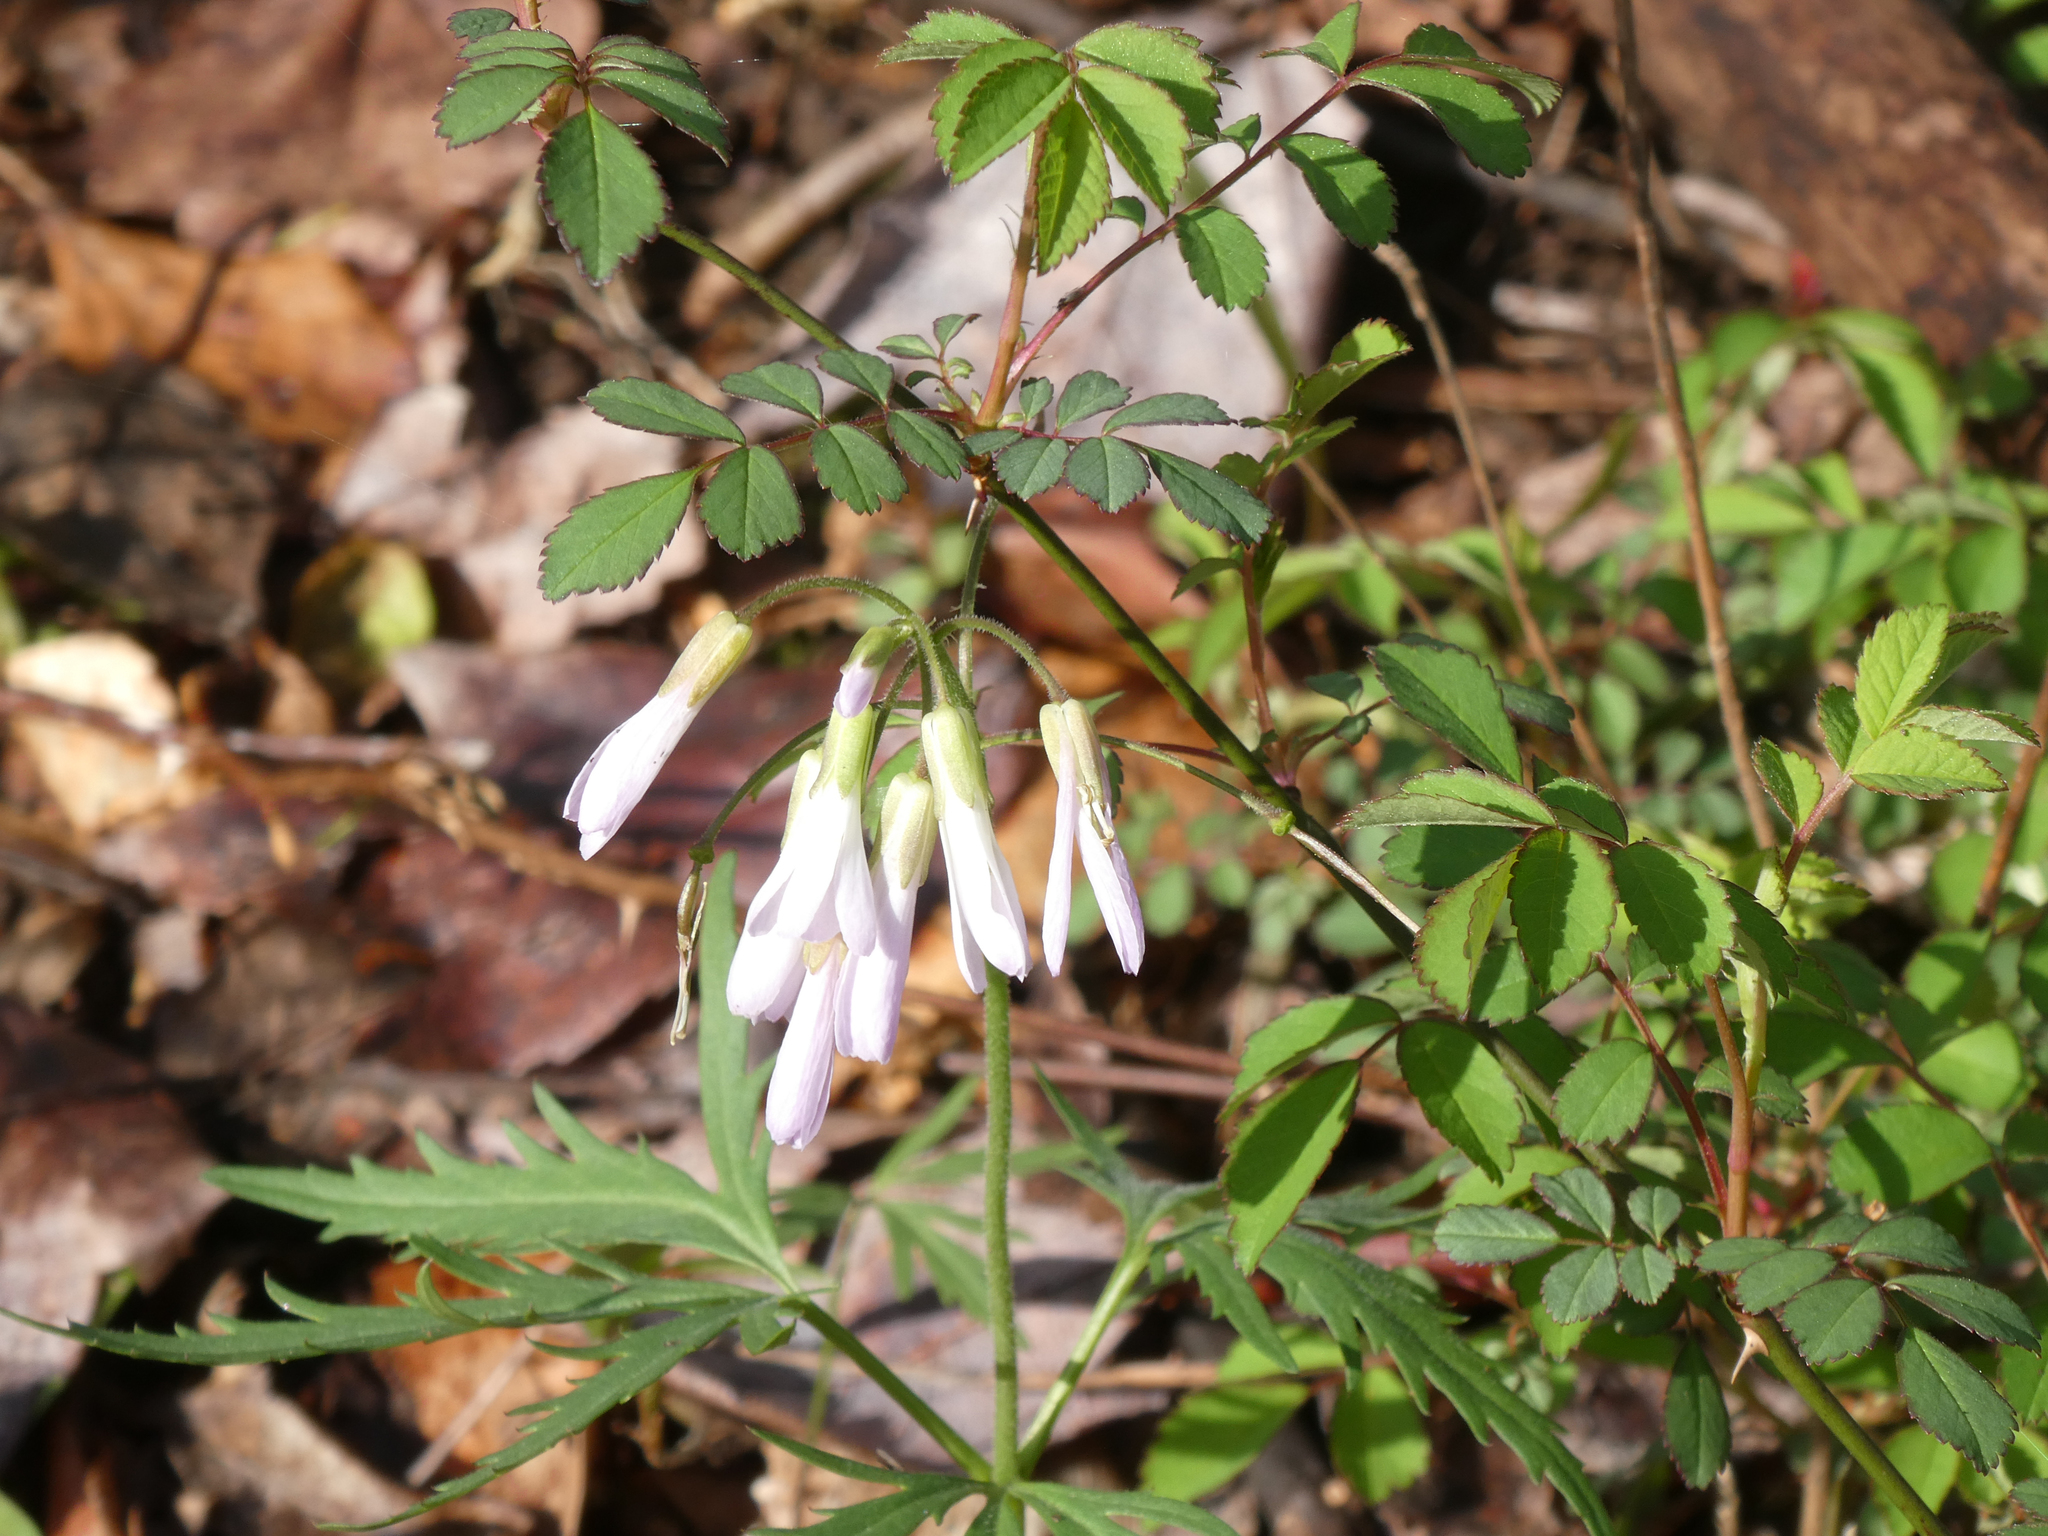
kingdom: Plantae
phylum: Tracheophyta
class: Magnoliopsida
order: Brassicales
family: Brassicaceae
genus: Cardamine
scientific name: Cardamine concatenata
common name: Cut-leaf toothcup
